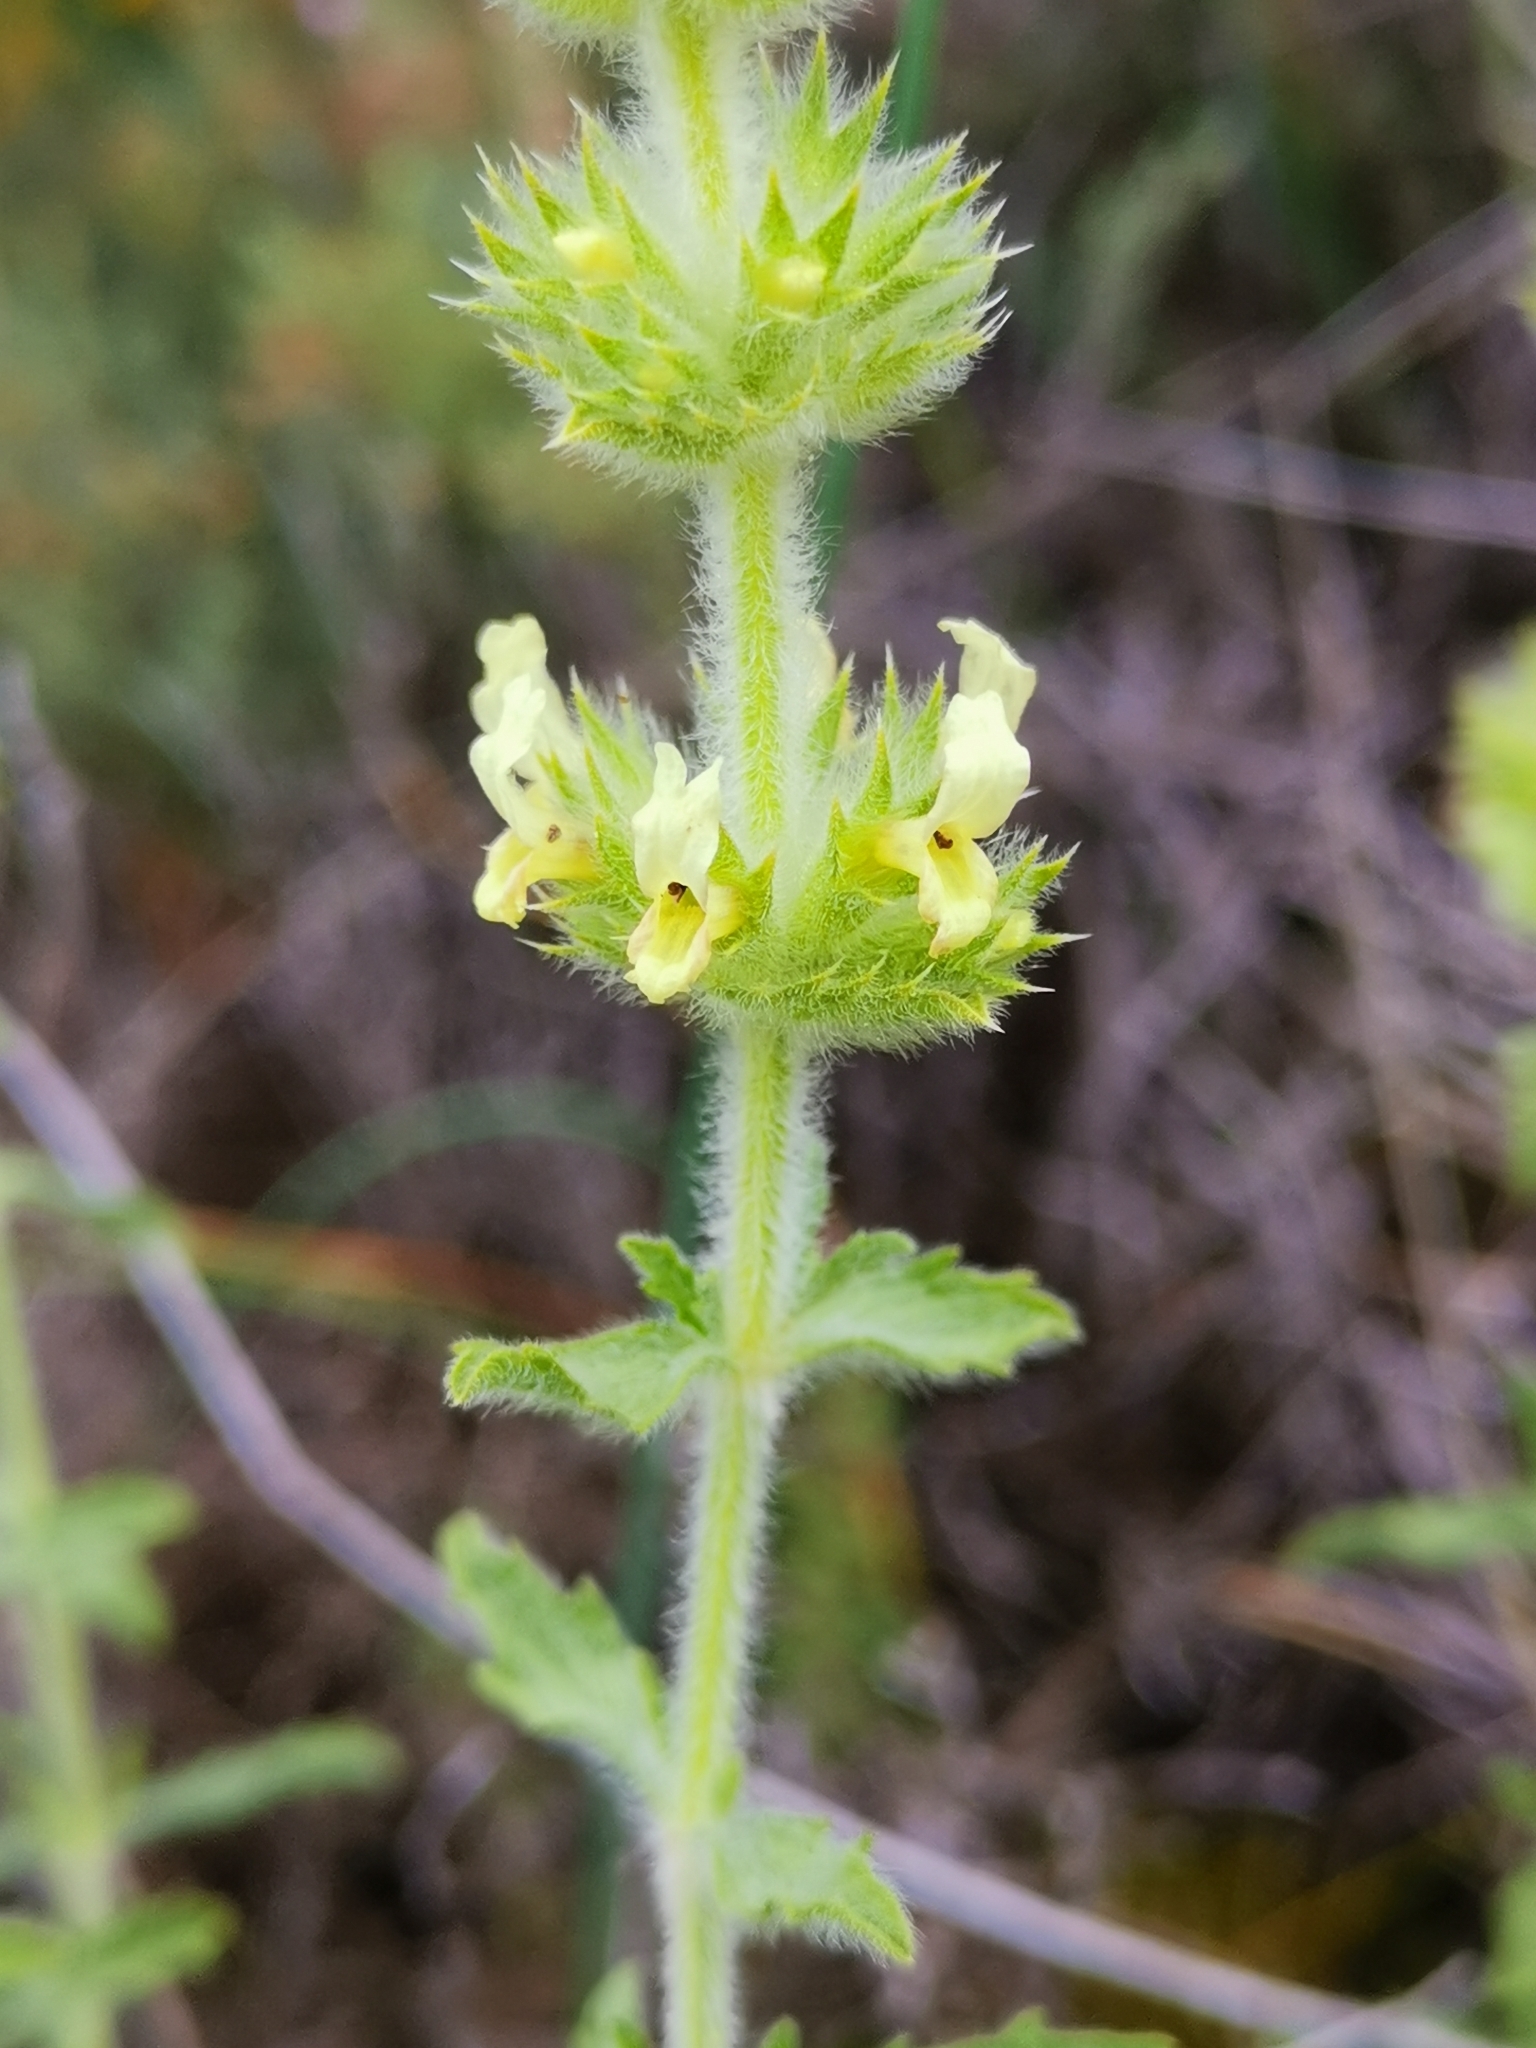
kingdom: Plantae
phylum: Tracheophyta
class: Magnoliopsida
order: Lamiales
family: Lamiaceae
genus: Sideritis
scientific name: Sideritis endressii
